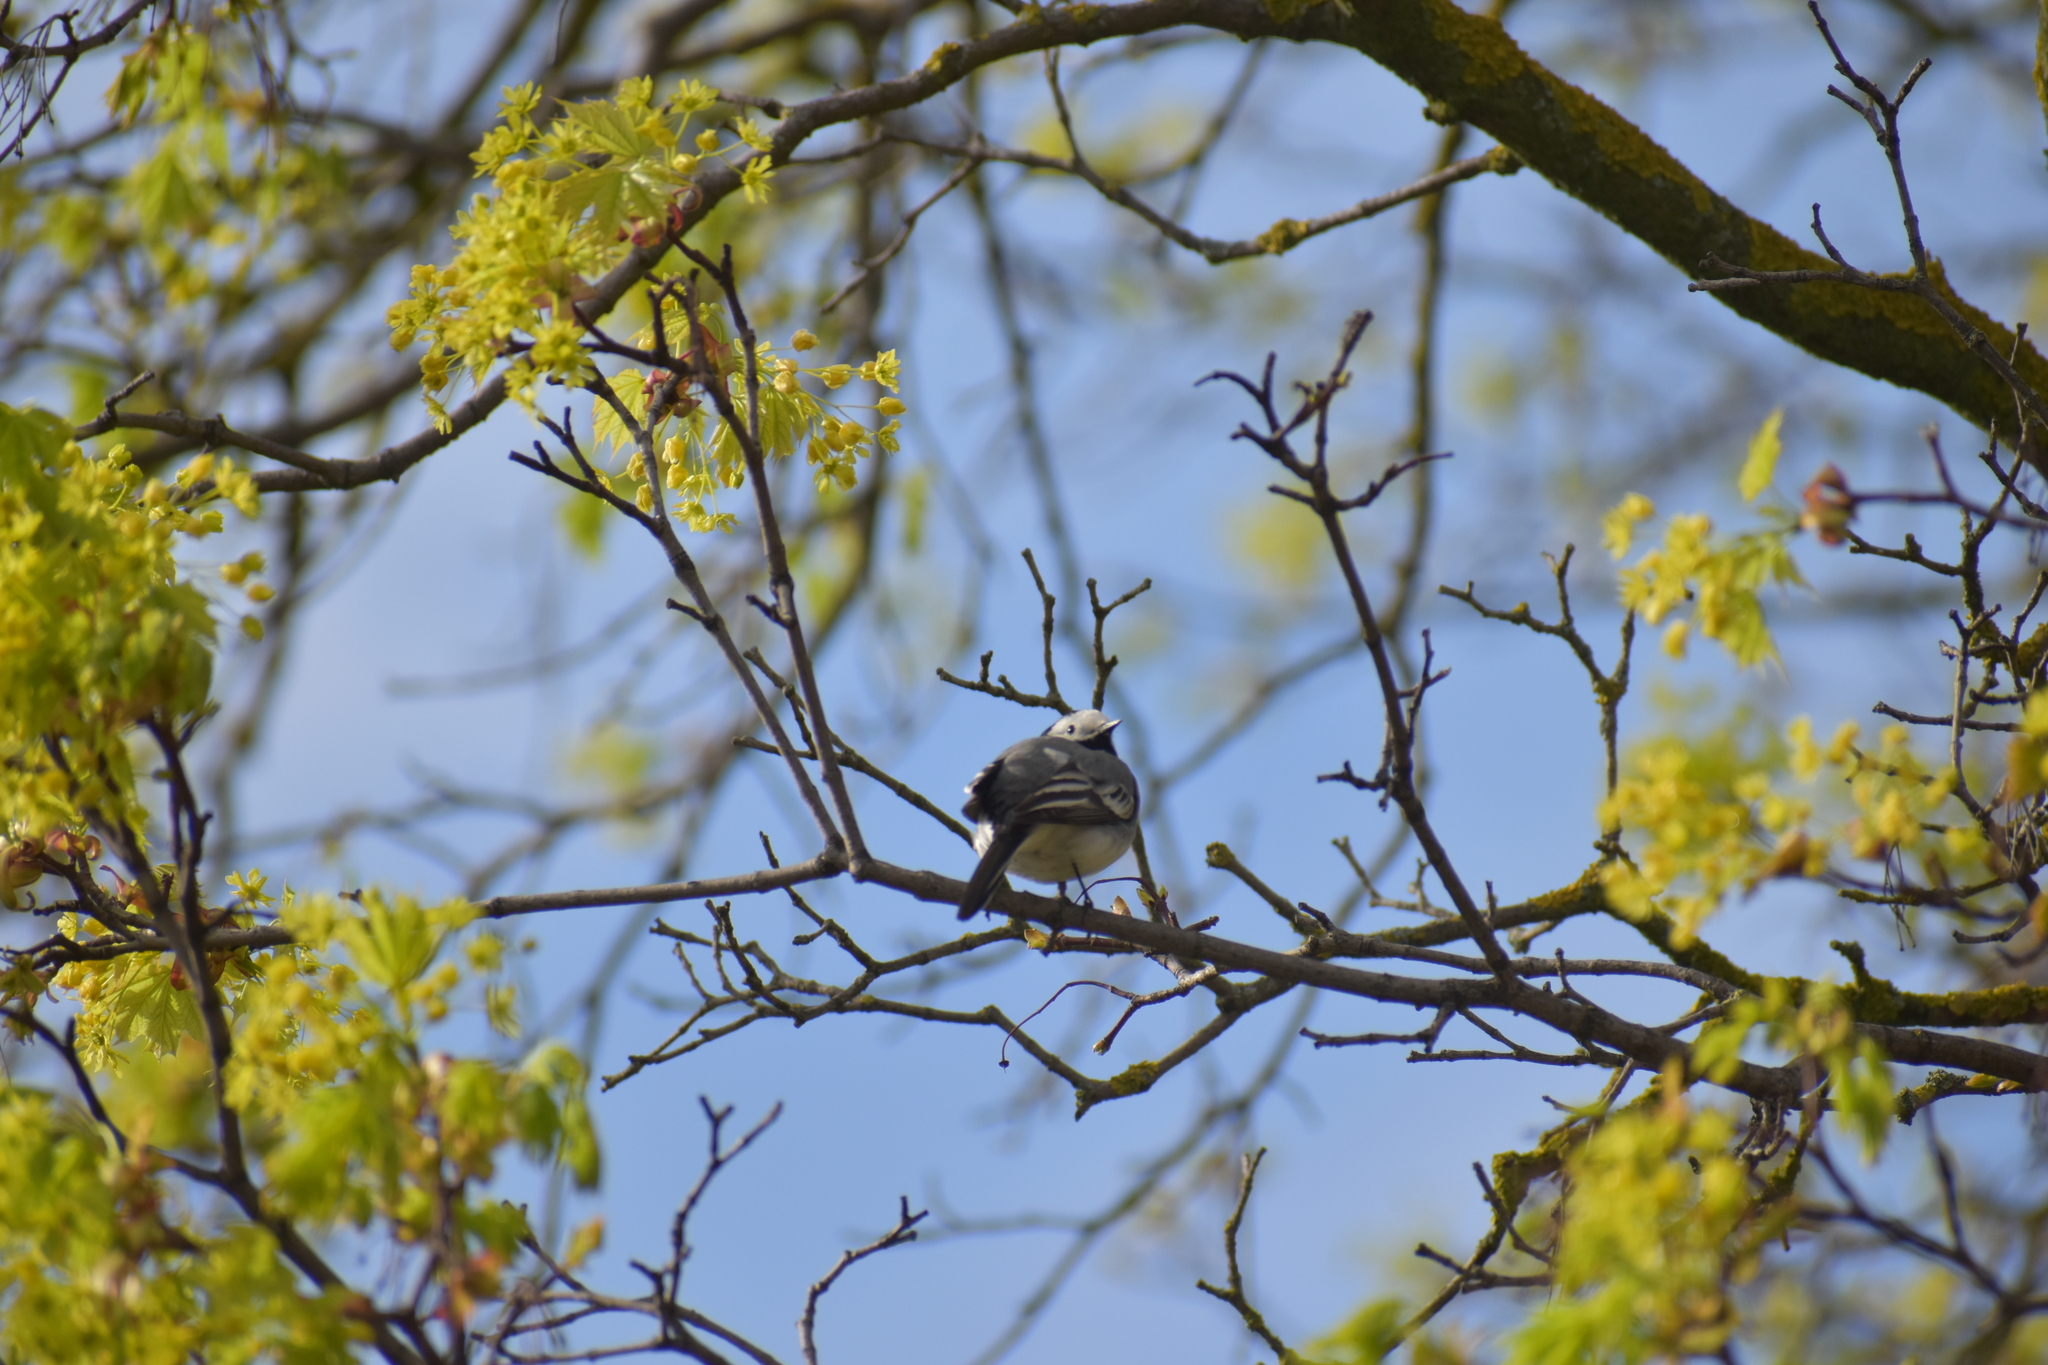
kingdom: Animalia
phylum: Chordata
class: Aves
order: Passeriformes
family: Motacillidae
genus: Motacilla
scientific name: Motacilla alba
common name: White wagtail
